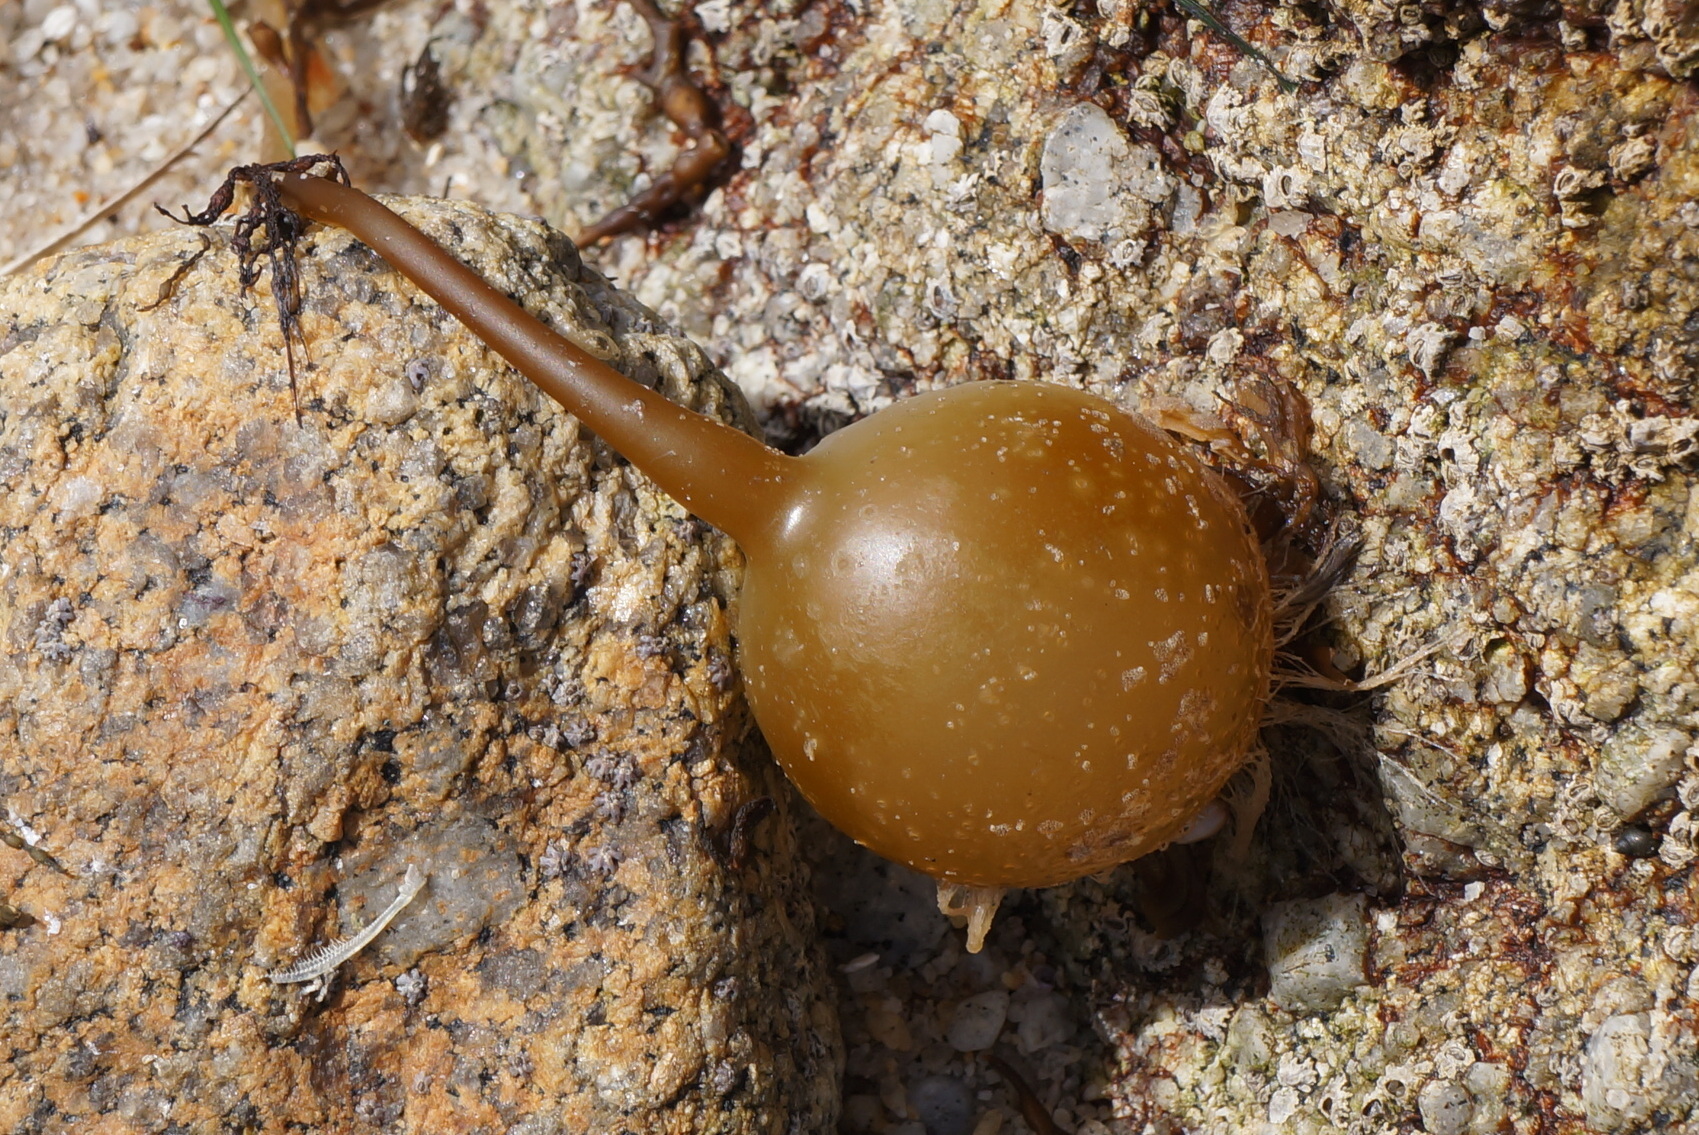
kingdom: Chromista
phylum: Ochrophyta
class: Phaeophyceae
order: Laminariales
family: Laminariaceae
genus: Nereocystis
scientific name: Nereocystis luetkeana
